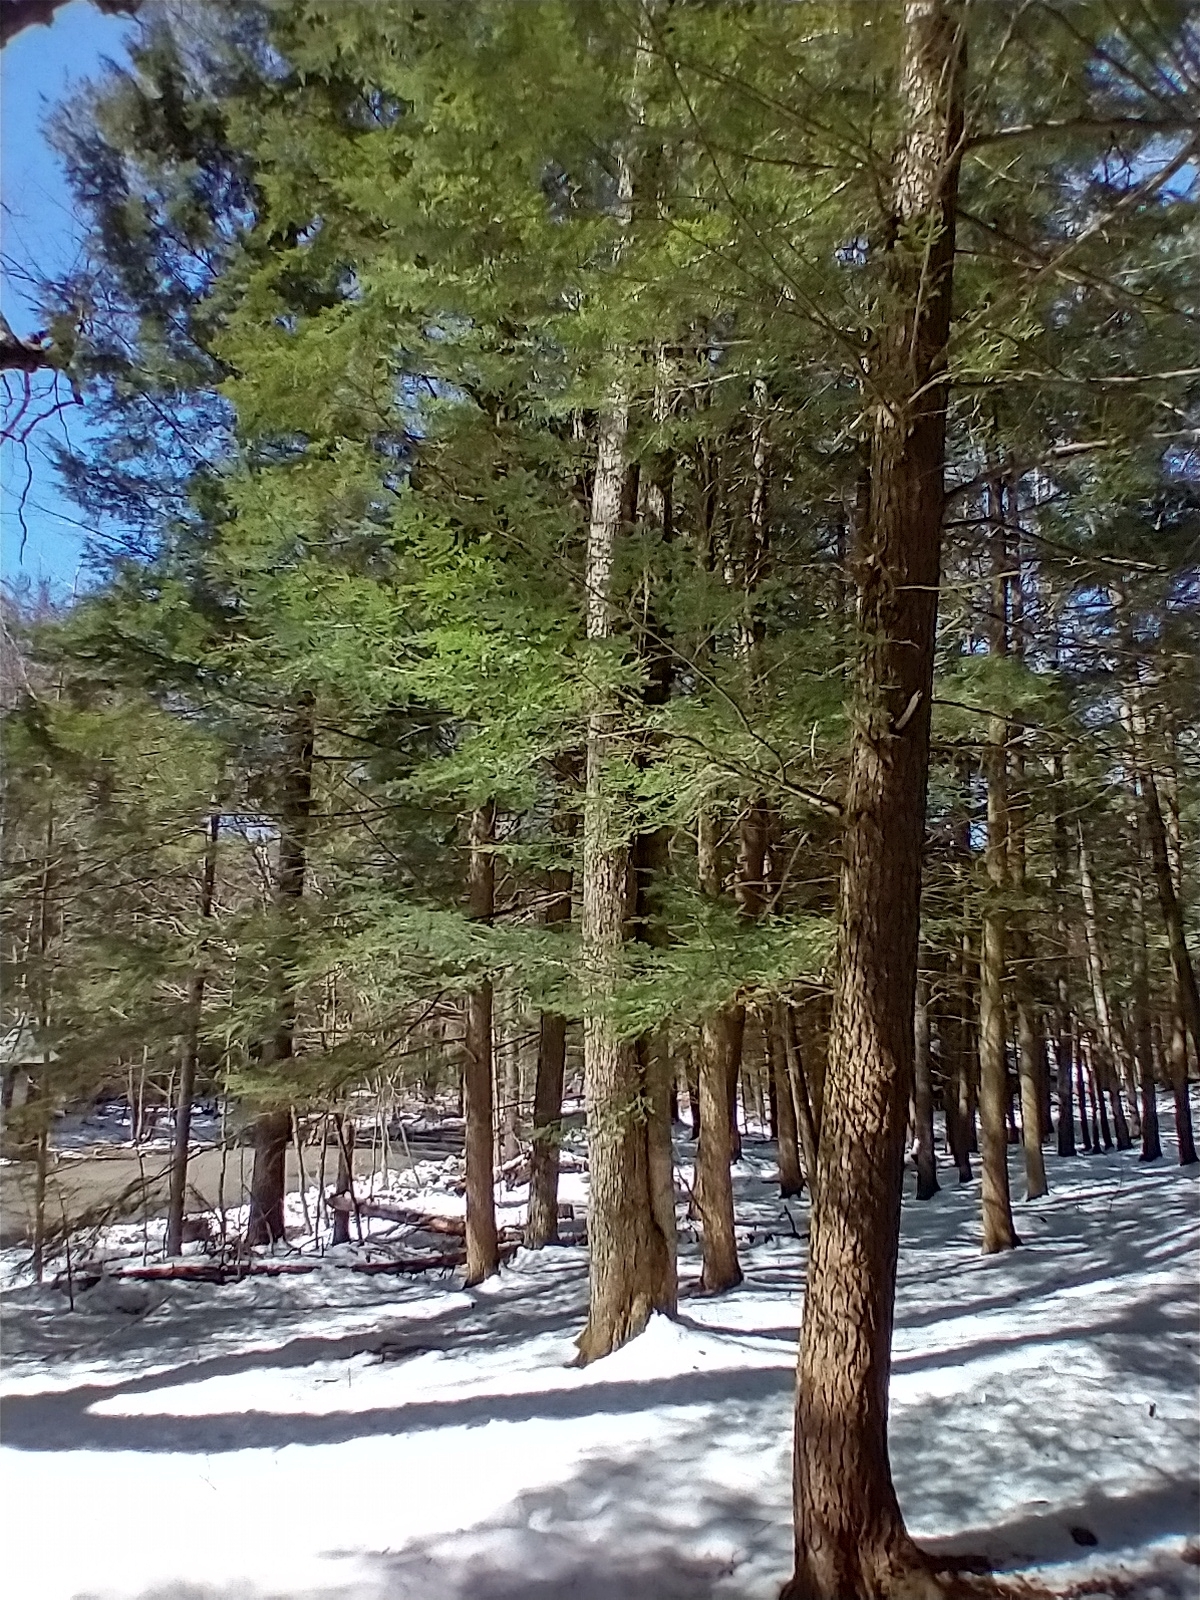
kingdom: Plantae
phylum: Tracheophyta
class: Pinopsida
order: Pinales
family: Pinaceae
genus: Tsuga
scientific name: Tsuga canadensis
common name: Eastern hemlock
